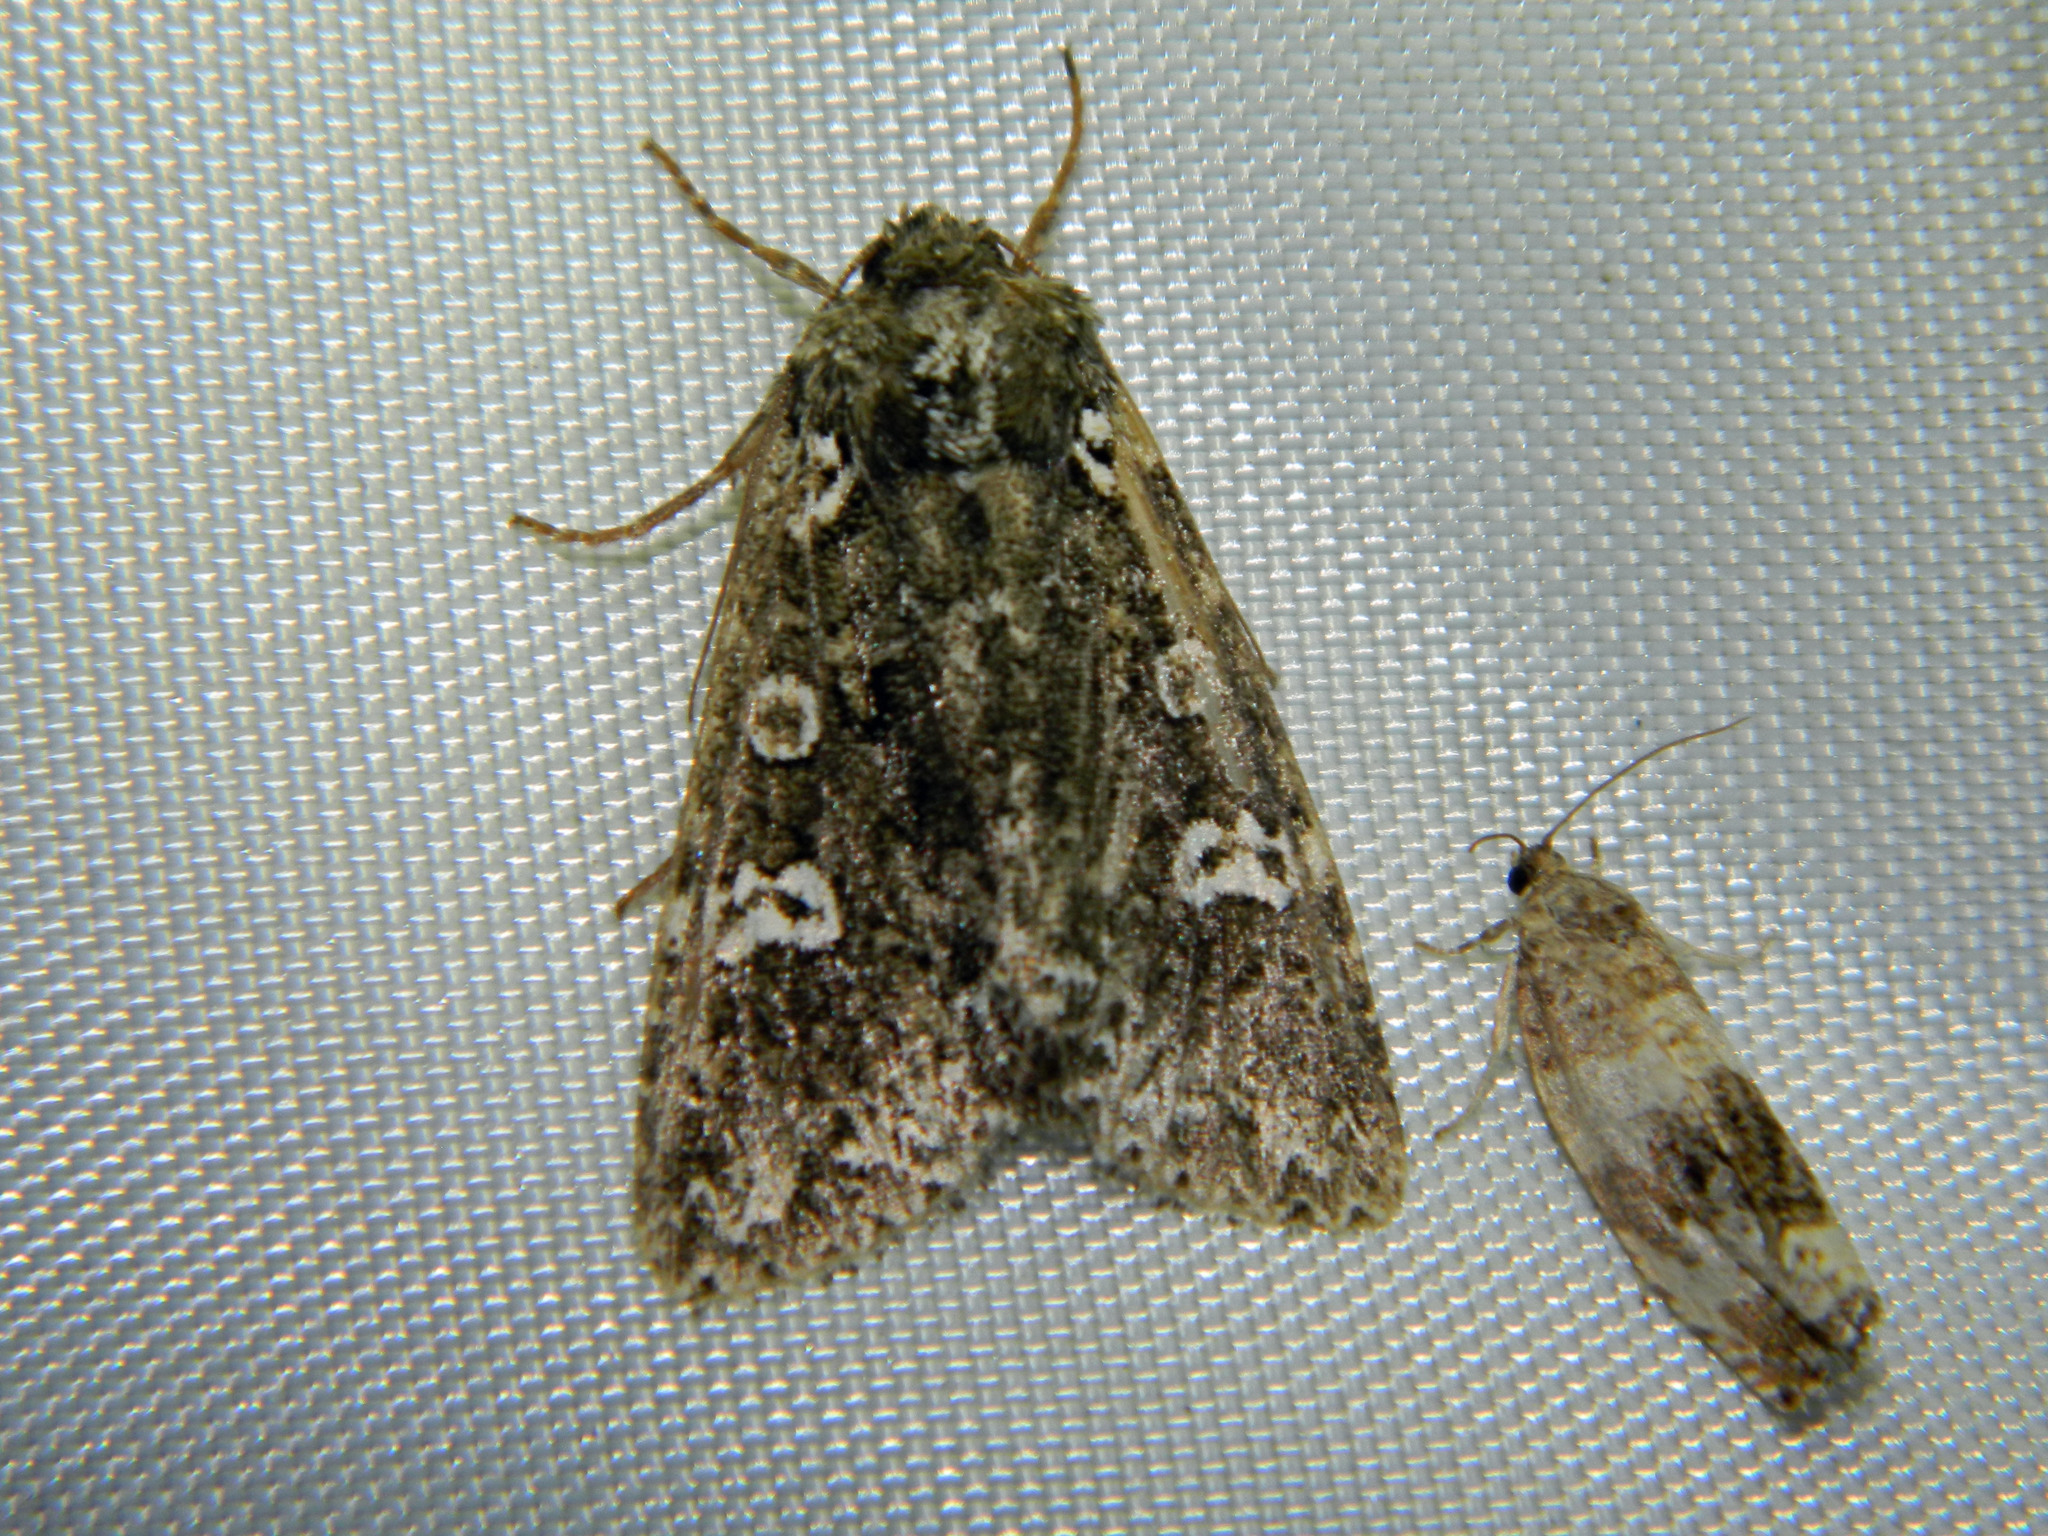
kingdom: Animalia
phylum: Arthropoda
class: Insecta
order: Lepidoptera
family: Noctuidae
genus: Melanchra
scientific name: Melanchra adjuncta
